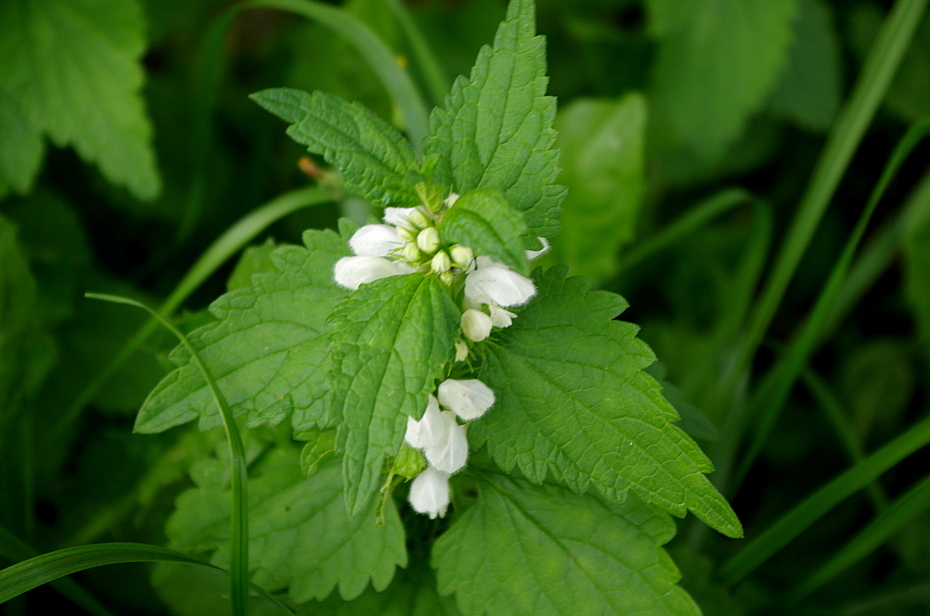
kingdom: Plantae
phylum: Tracheophyta
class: Magnoliopsida
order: Lamiales
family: Lamiaceae
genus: Lamium
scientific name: Lamium album
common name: White dead-nettle
